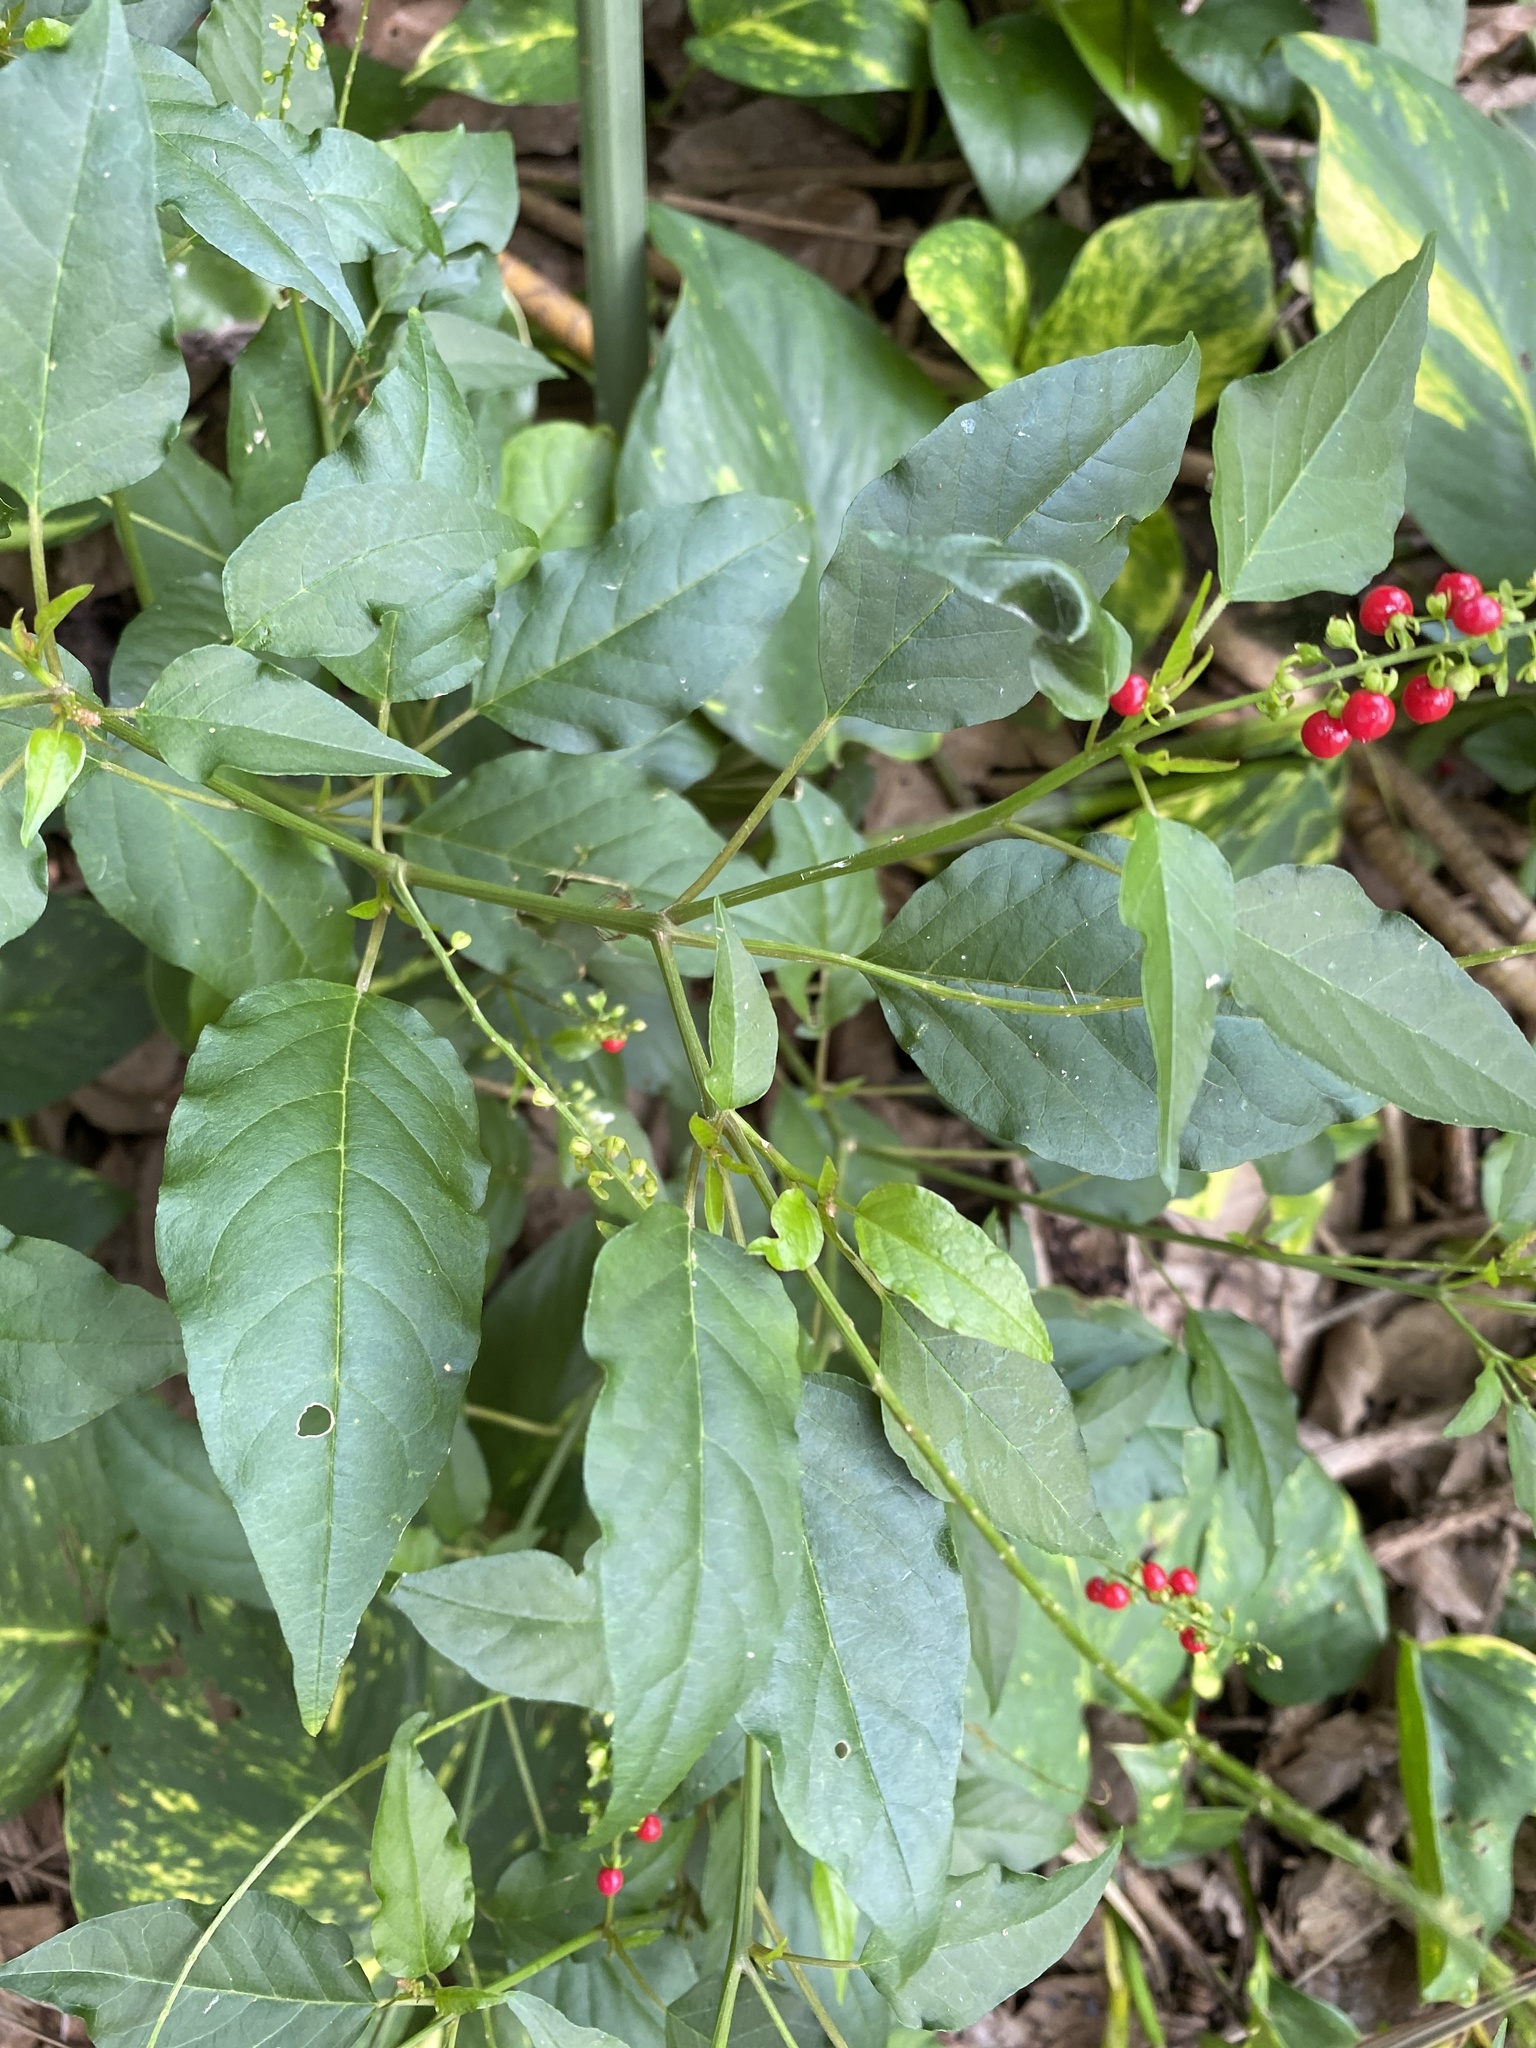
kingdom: Plantae
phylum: Tracheophyta
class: Magnoliopsida
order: Caryophyllales
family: Phytolaccaceae
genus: Rivina
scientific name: Rivina humilis
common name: Rougeplant
